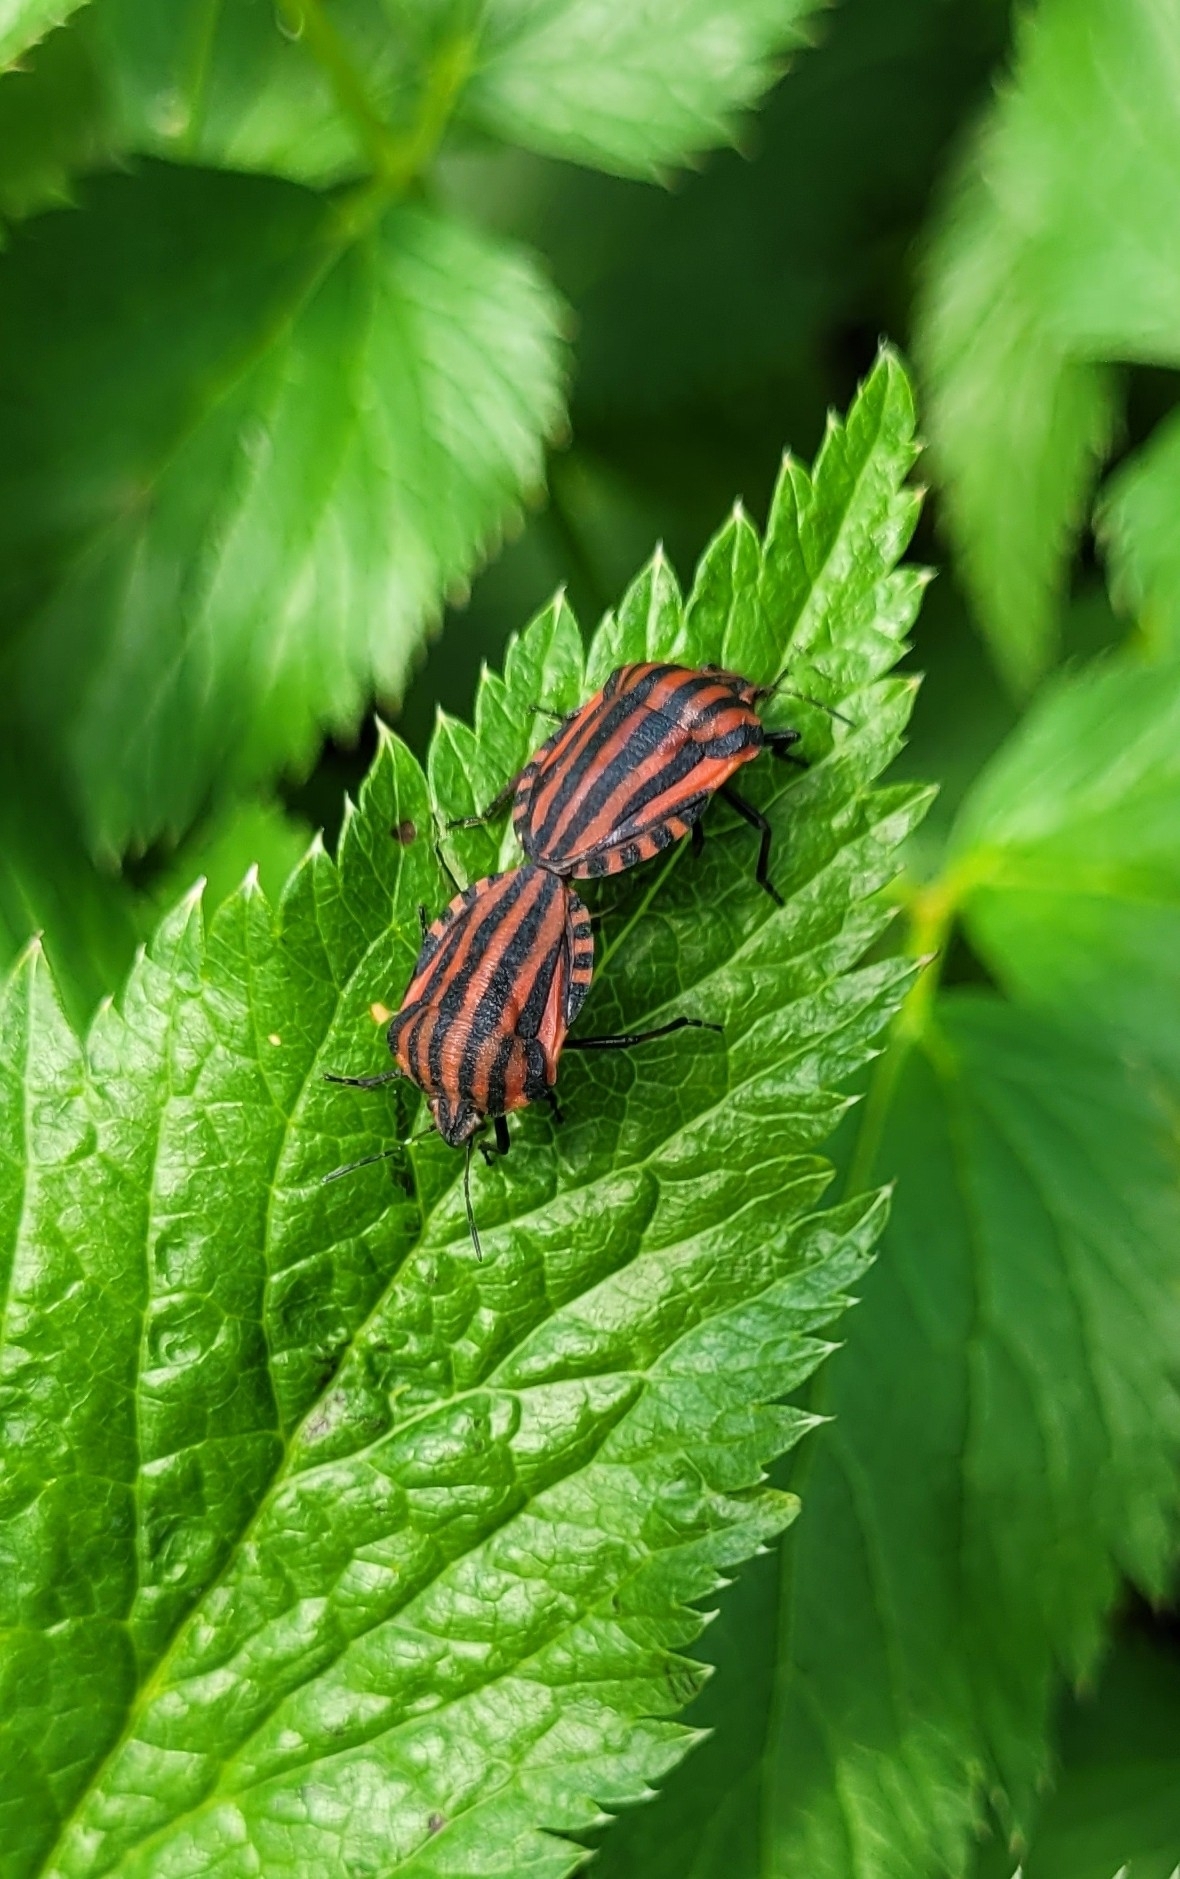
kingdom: Animalia
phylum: Arthropoda
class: Insecta
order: Hemiptera
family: Pentatomidae
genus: Graphosoma
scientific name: Graphosoma italicum
